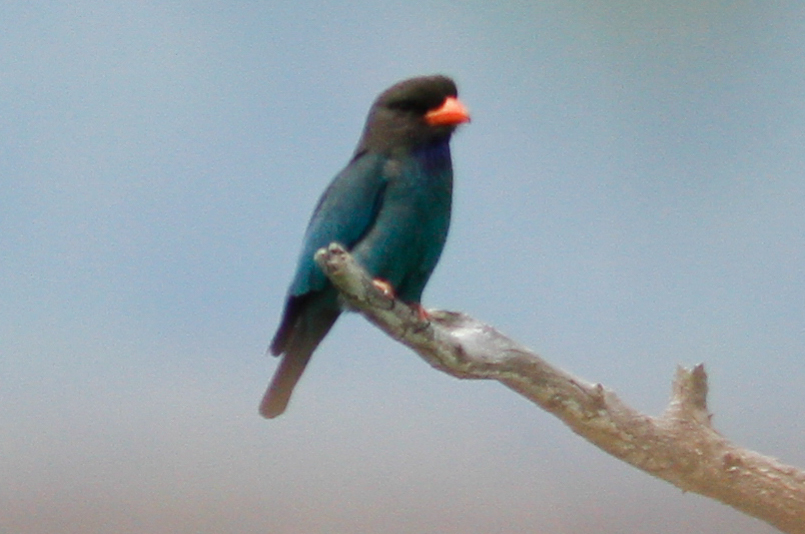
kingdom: Animalia
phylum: Chordata
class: Aves
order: Coraciiformes
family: Coraciidae
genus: Eurystomus
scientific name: Eurystomus orientalis
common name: Oriental dollarbird
